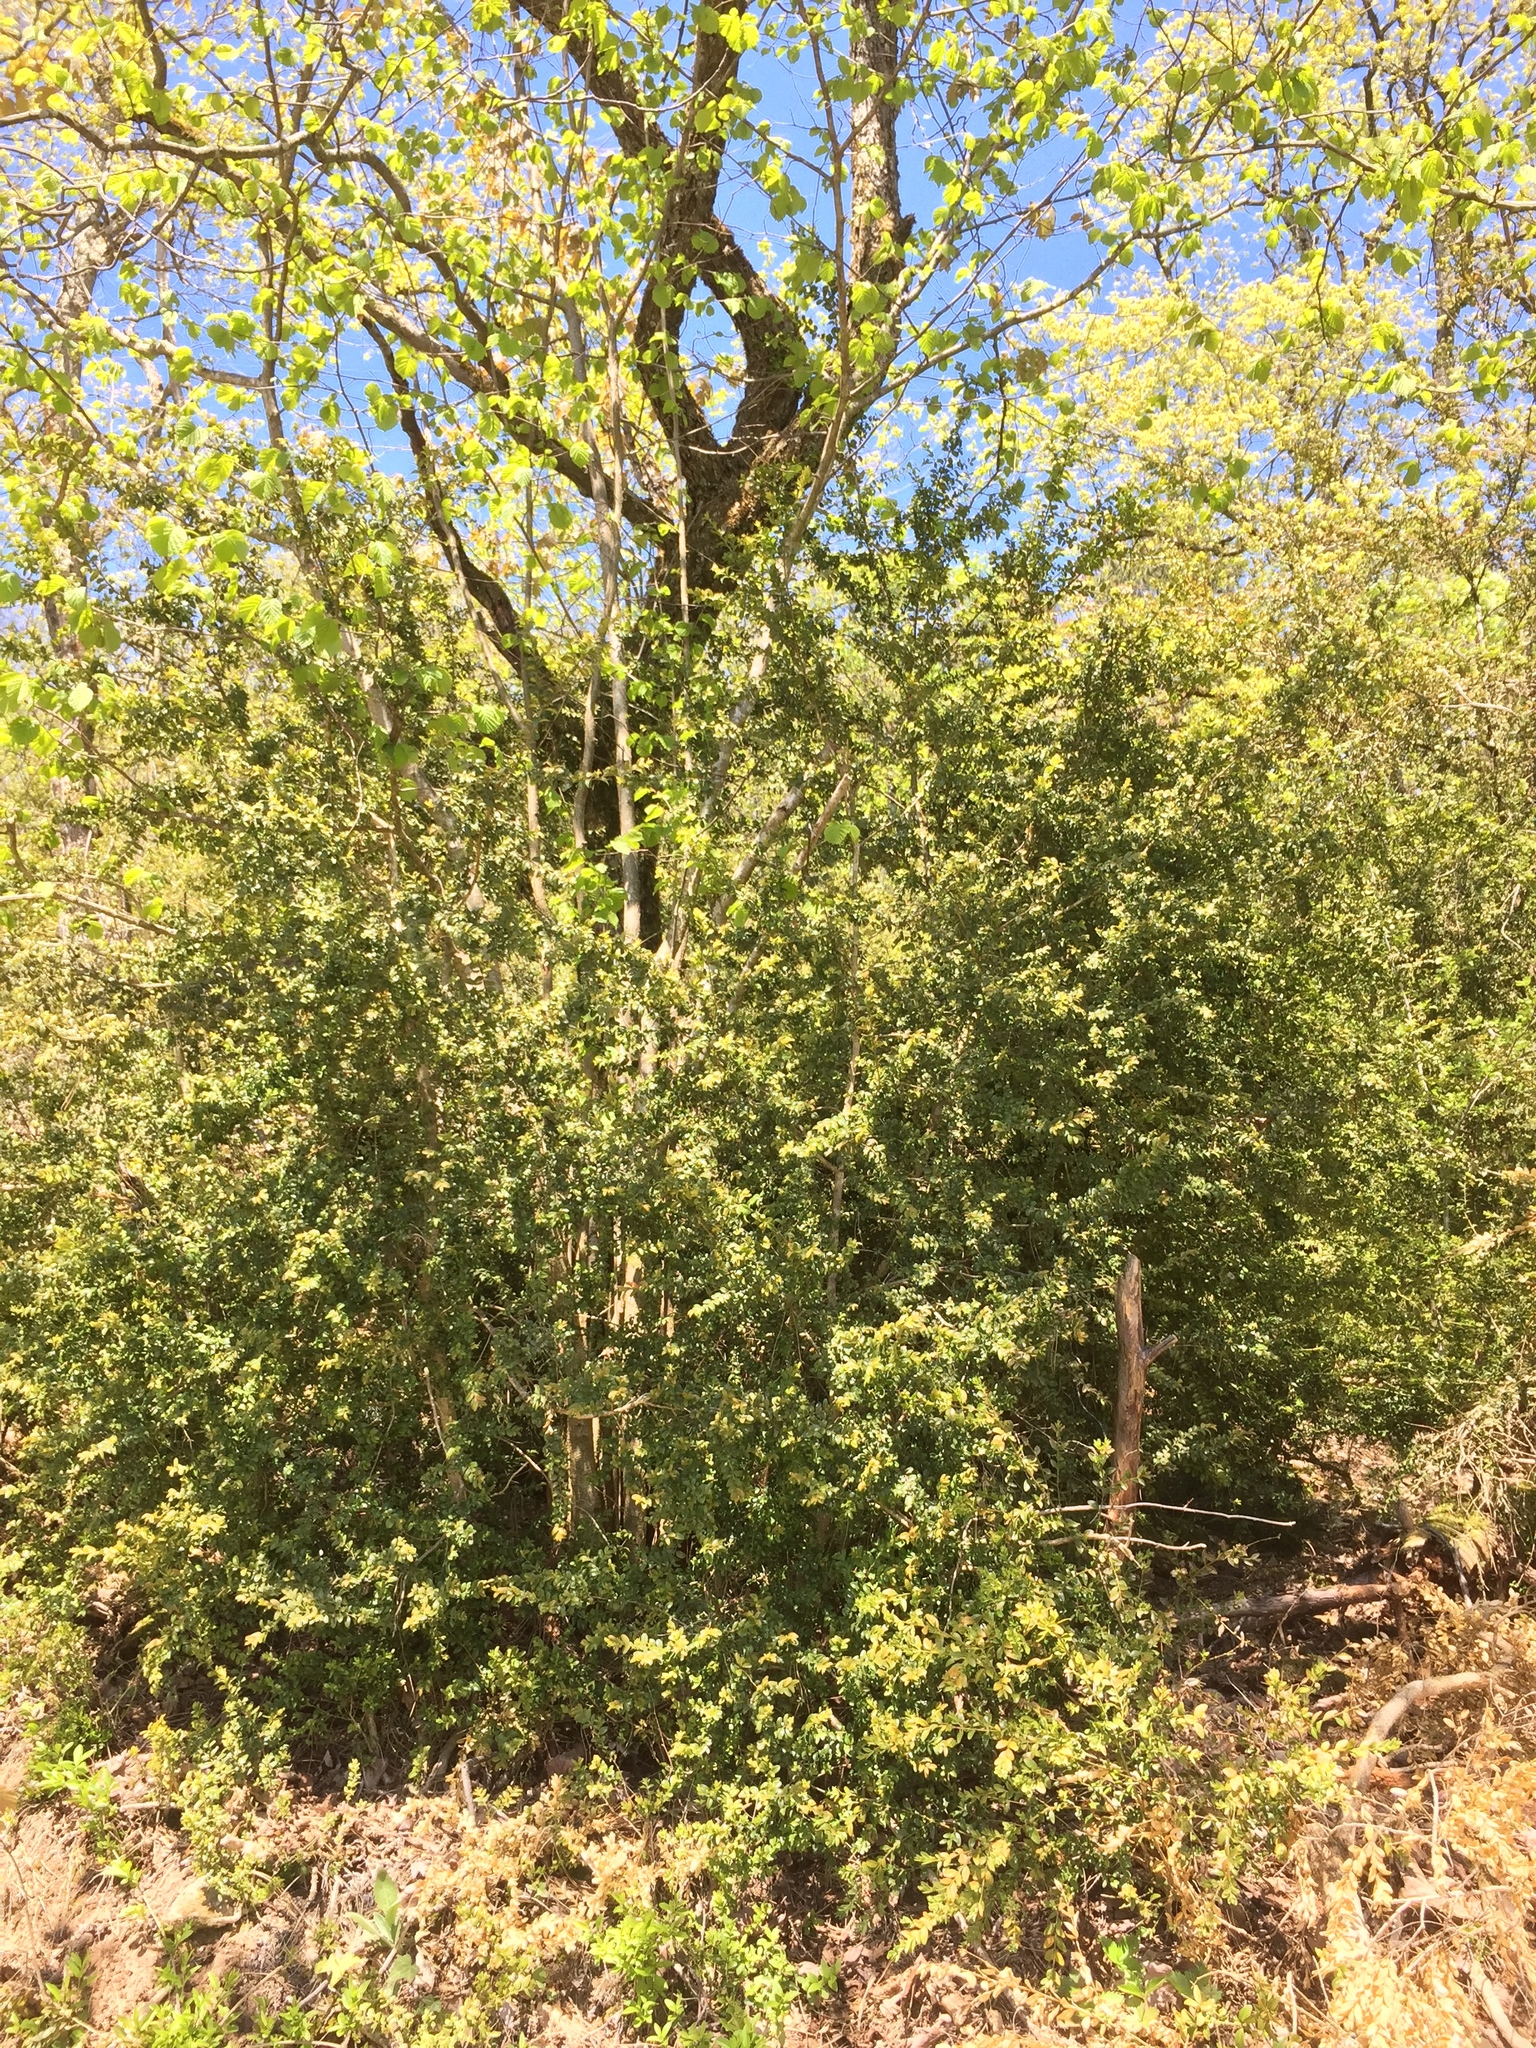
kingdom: Plantae
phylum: Tracheophyta
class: Magnoliopsida
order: Buxales
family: Buxaceae
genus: Buxus
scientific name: Buxus sempervirens
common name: Box
